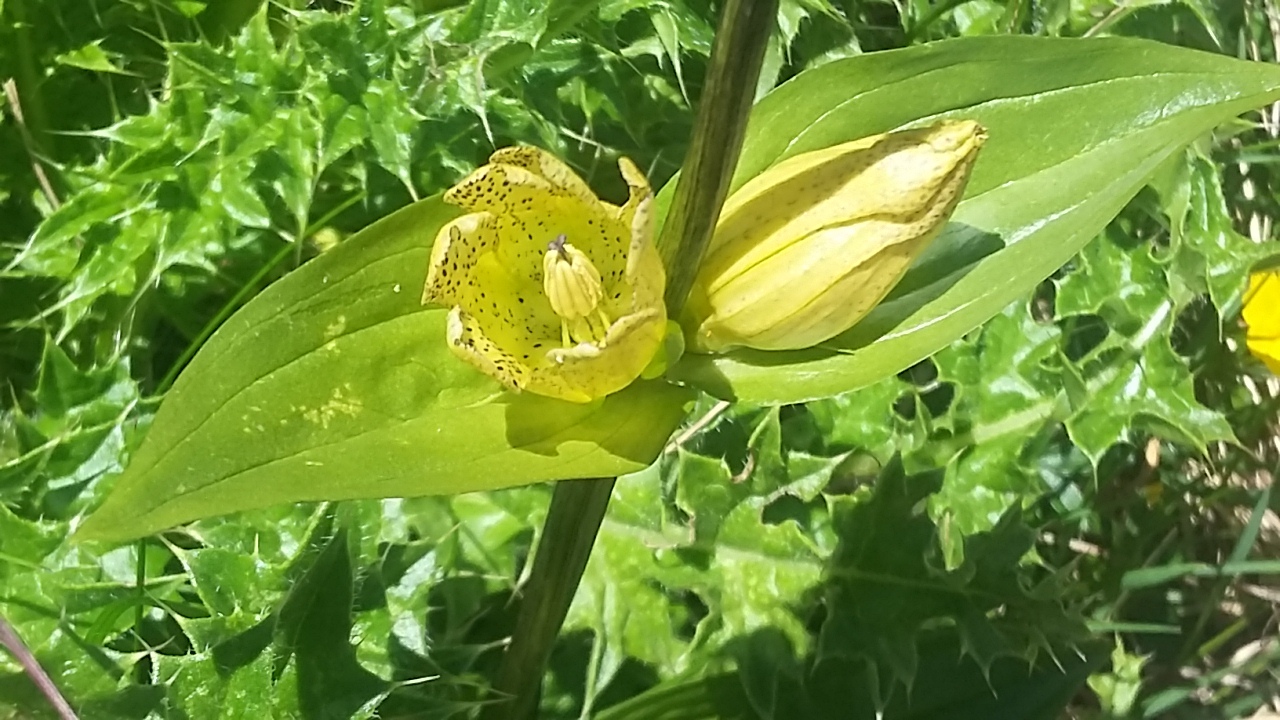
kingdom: Plantae
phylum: Tracheophyta
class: Magnoliopsida
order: Gentianales
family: Gentianaceae
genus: Gentiana
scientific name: Gentiana punctata
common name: Spotted gentian
